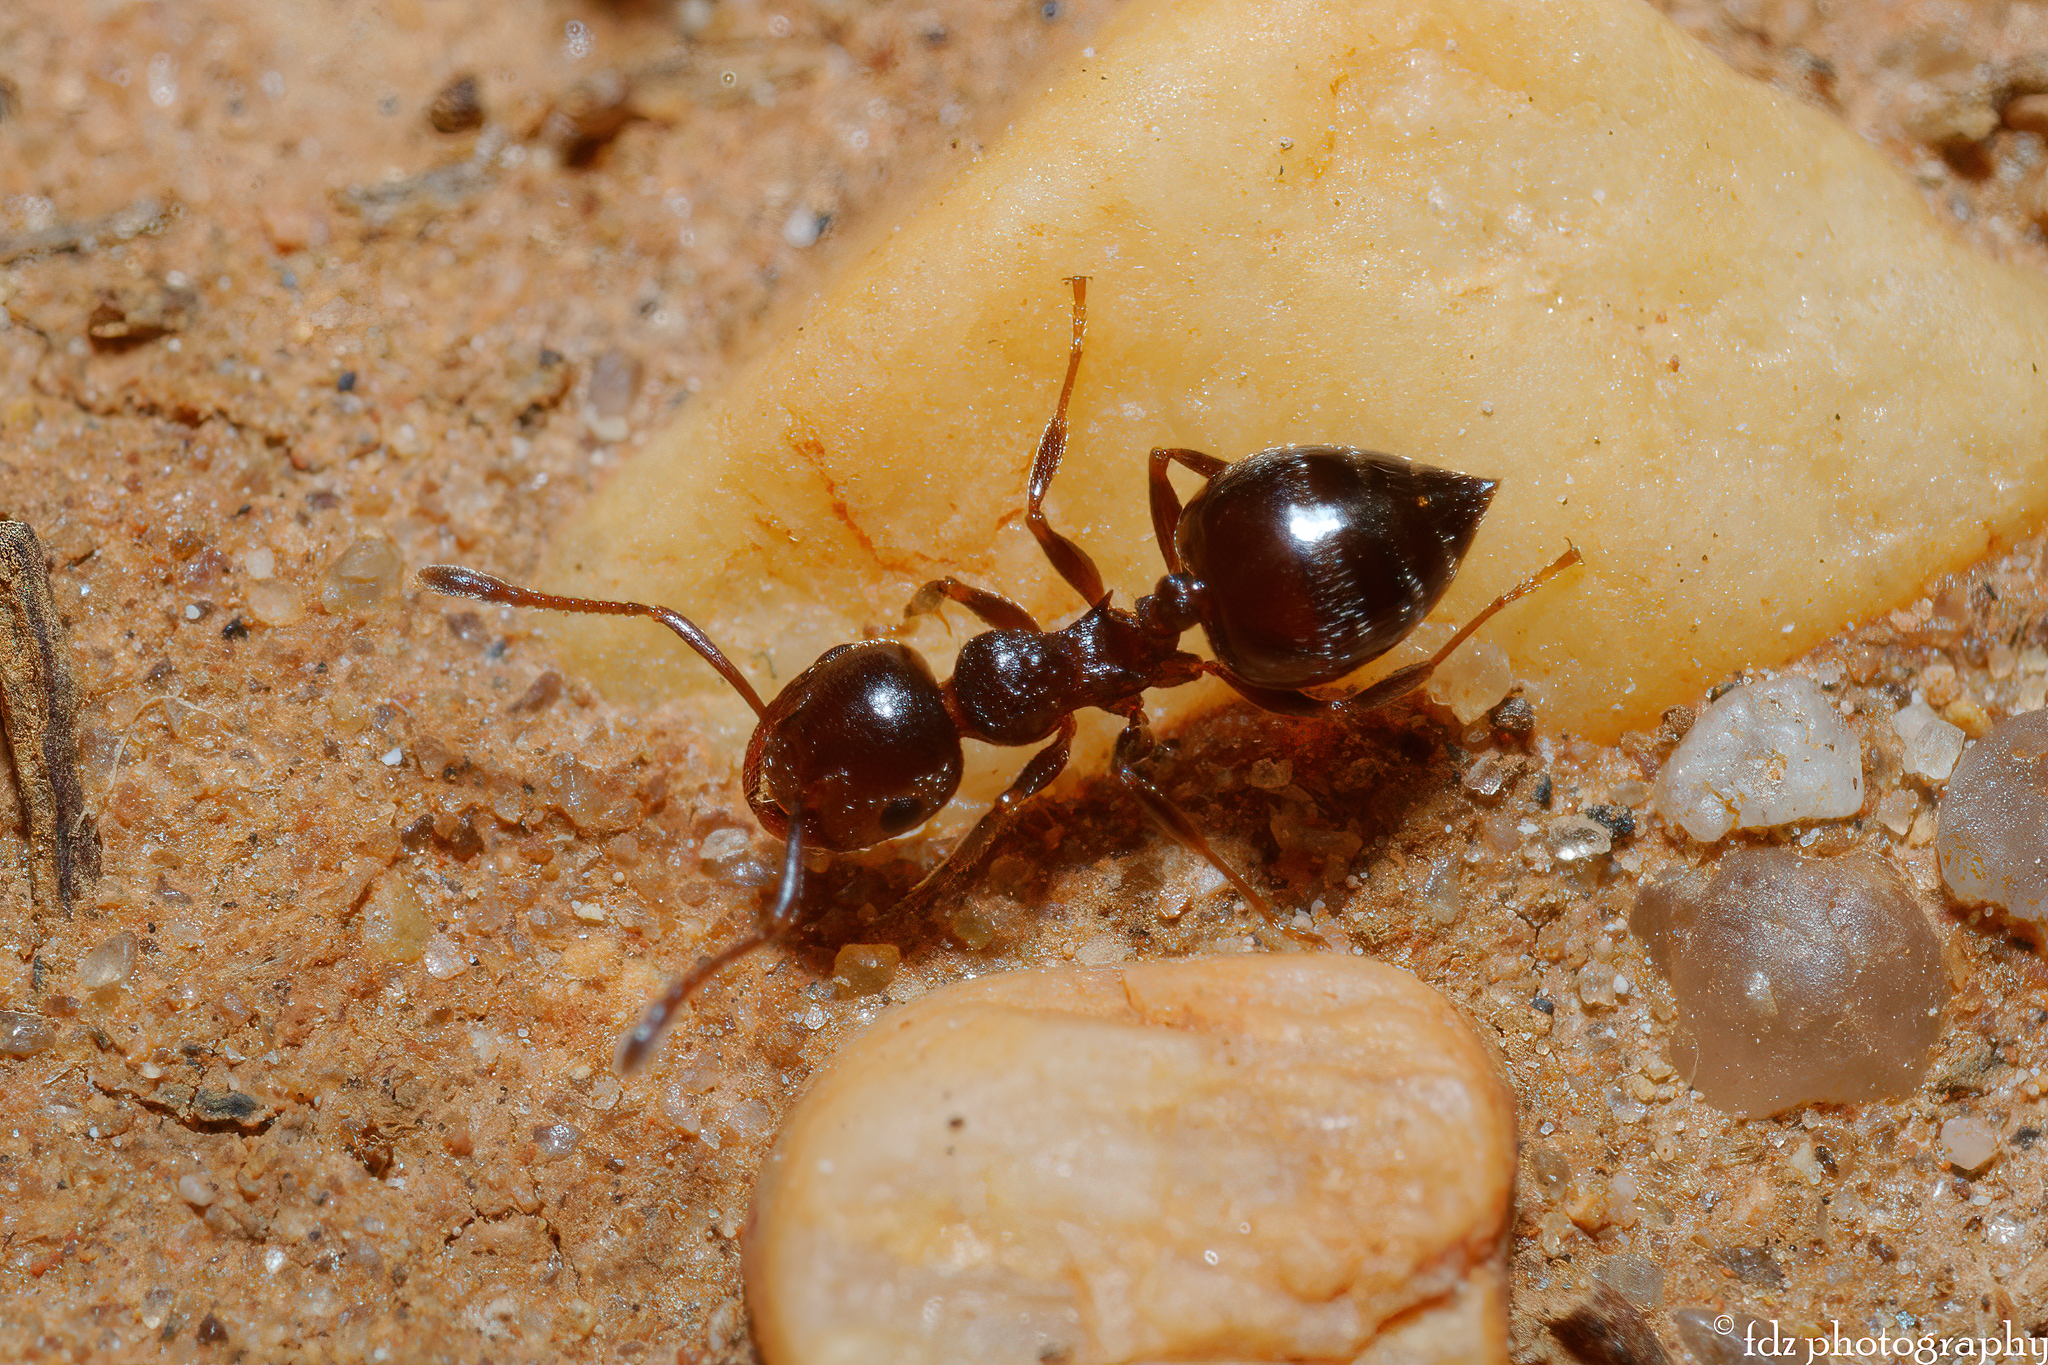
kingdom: Animalia
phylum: Arthropoda
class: Insecta
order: Hymenoptera
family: Formicidae
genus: Crematogaster
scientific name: Crematogaster sordidula
